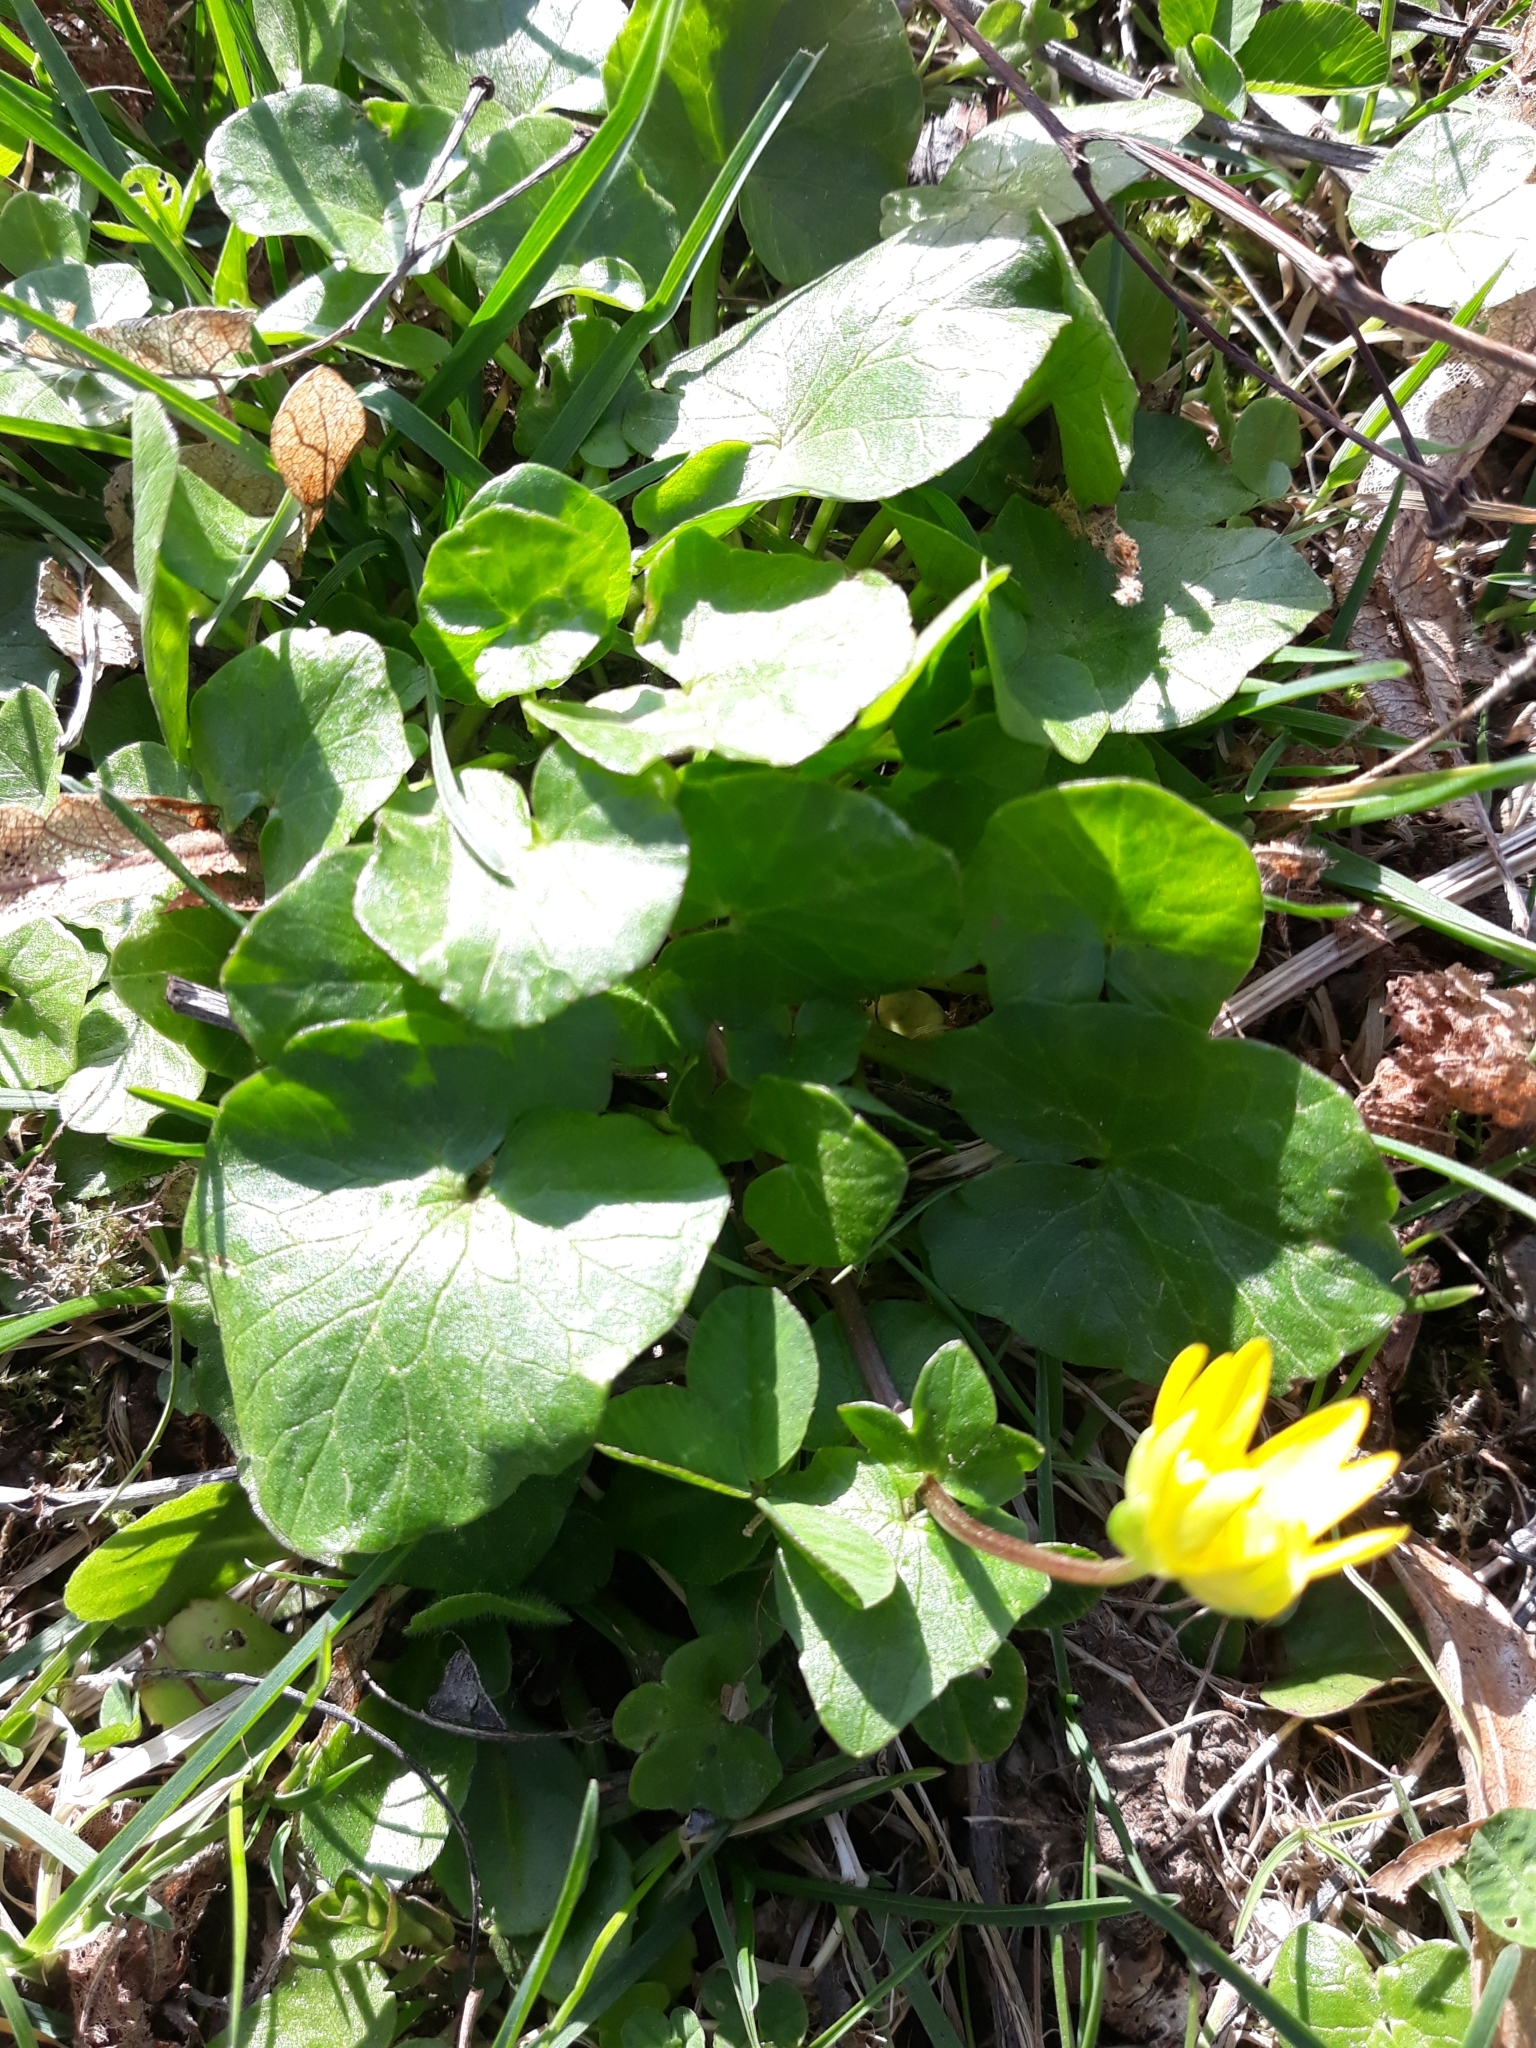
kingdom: Plantae
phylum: Tracheophyta
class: Magnoliopsida
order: Ranunculales
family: Ranunculaceae
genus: Ficaria
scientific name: Ficaria verna
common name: Lesser celandine
